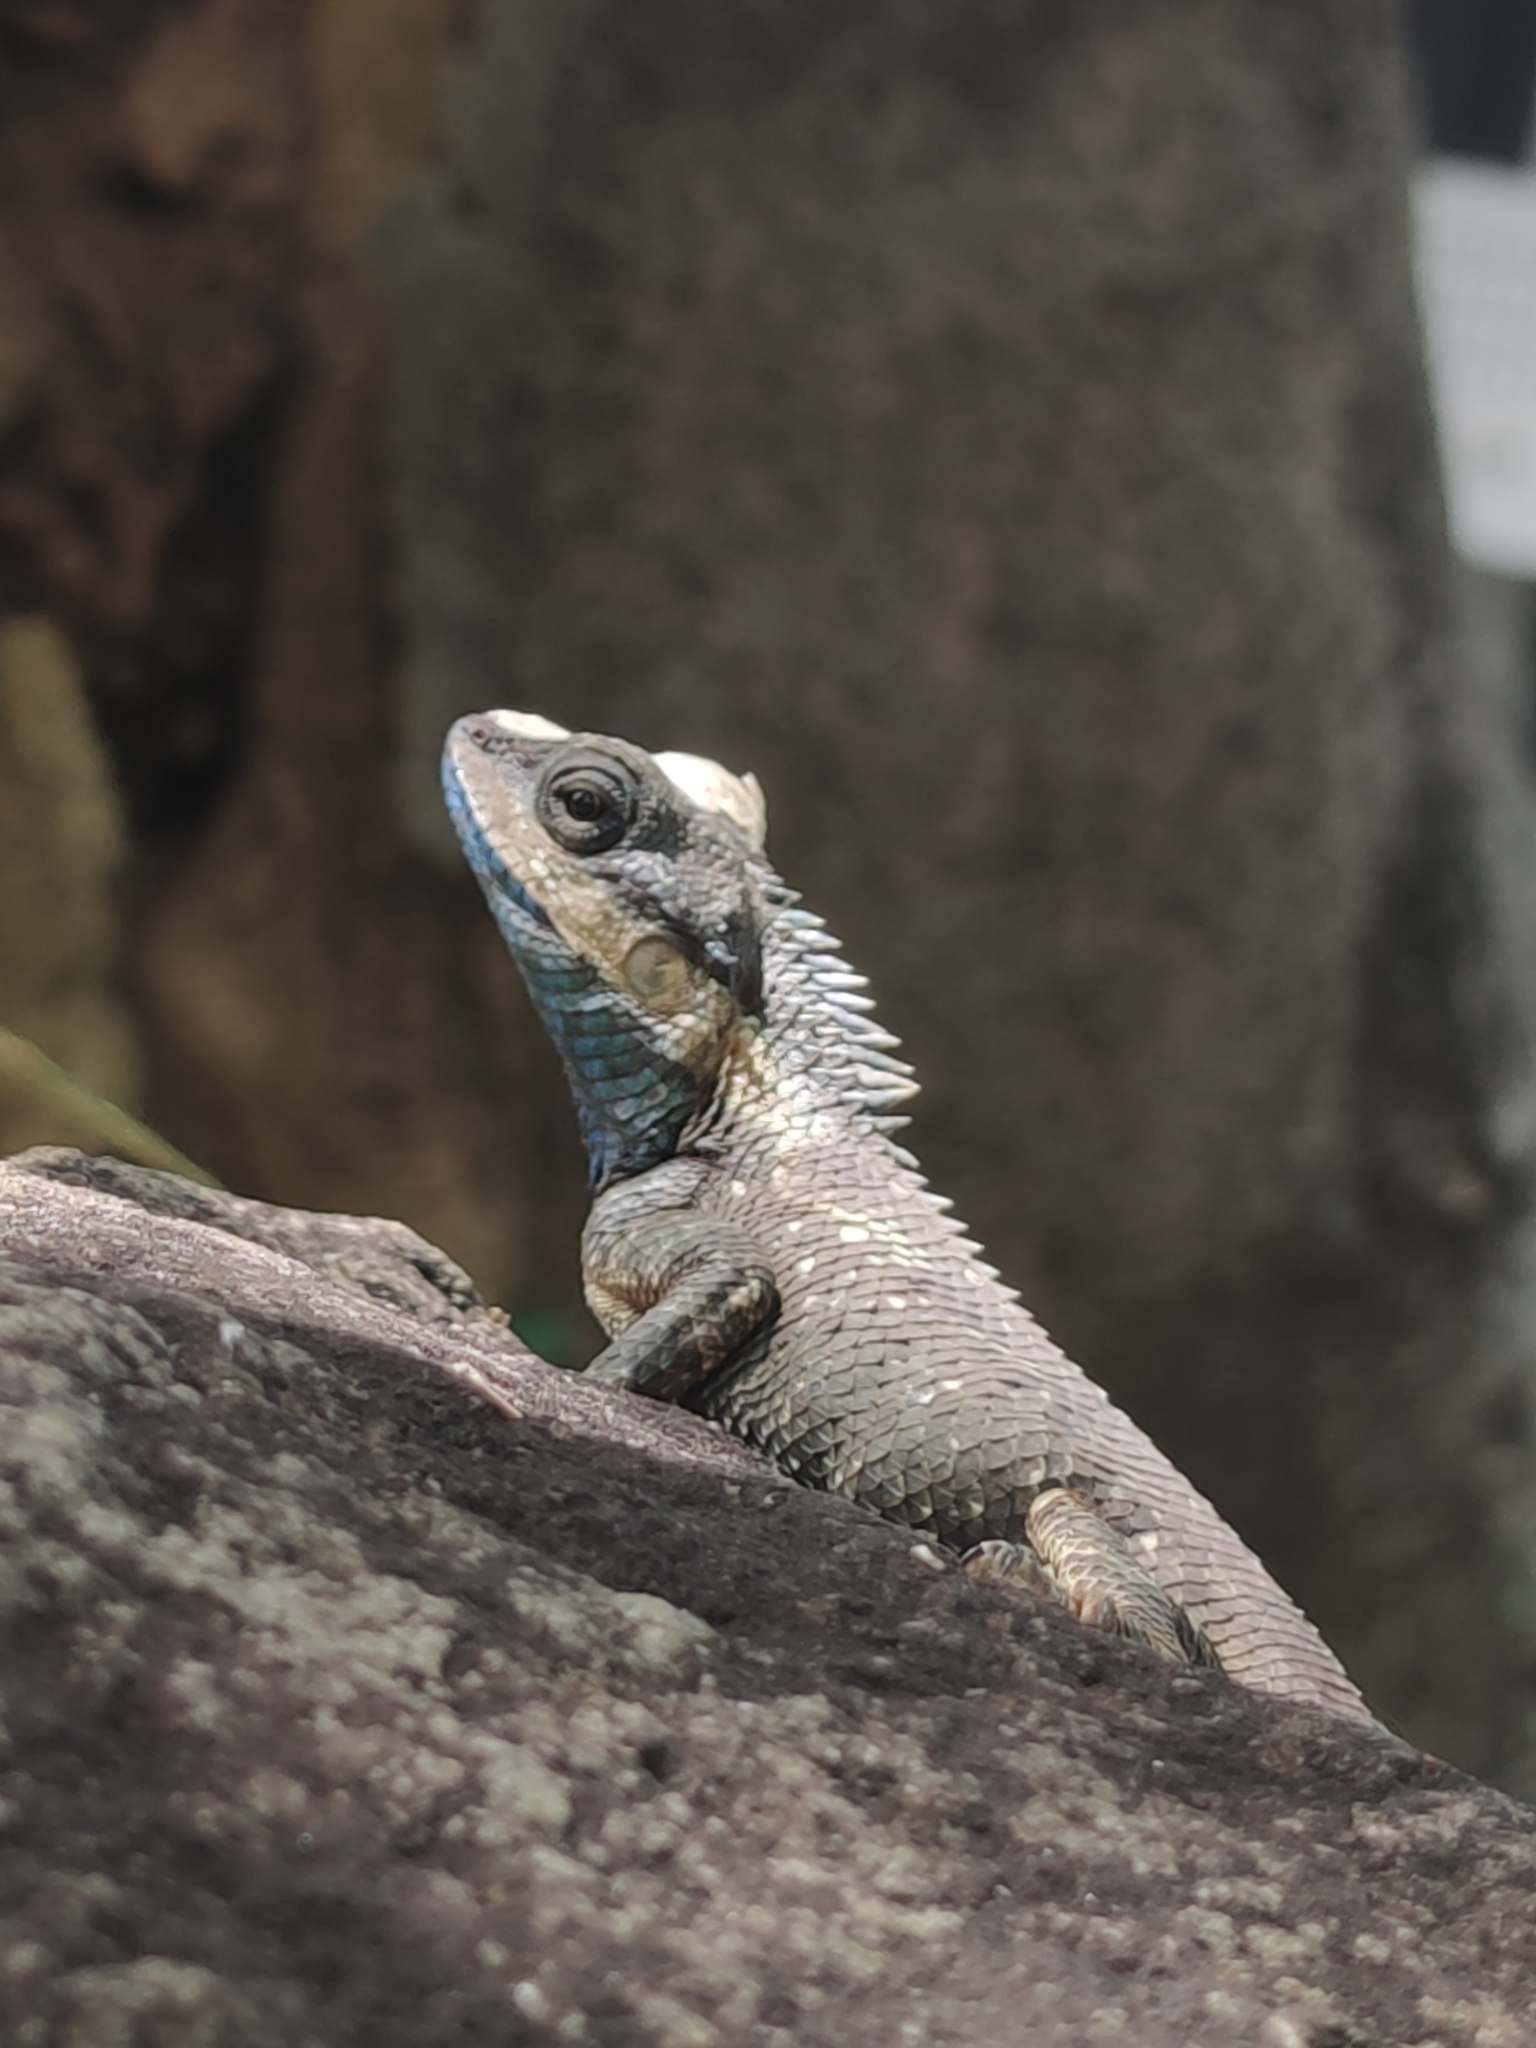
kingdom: Animalia
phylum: Chordata
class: Squamata
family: Agamidae
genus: Calotes
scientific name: Calotes goetzi
